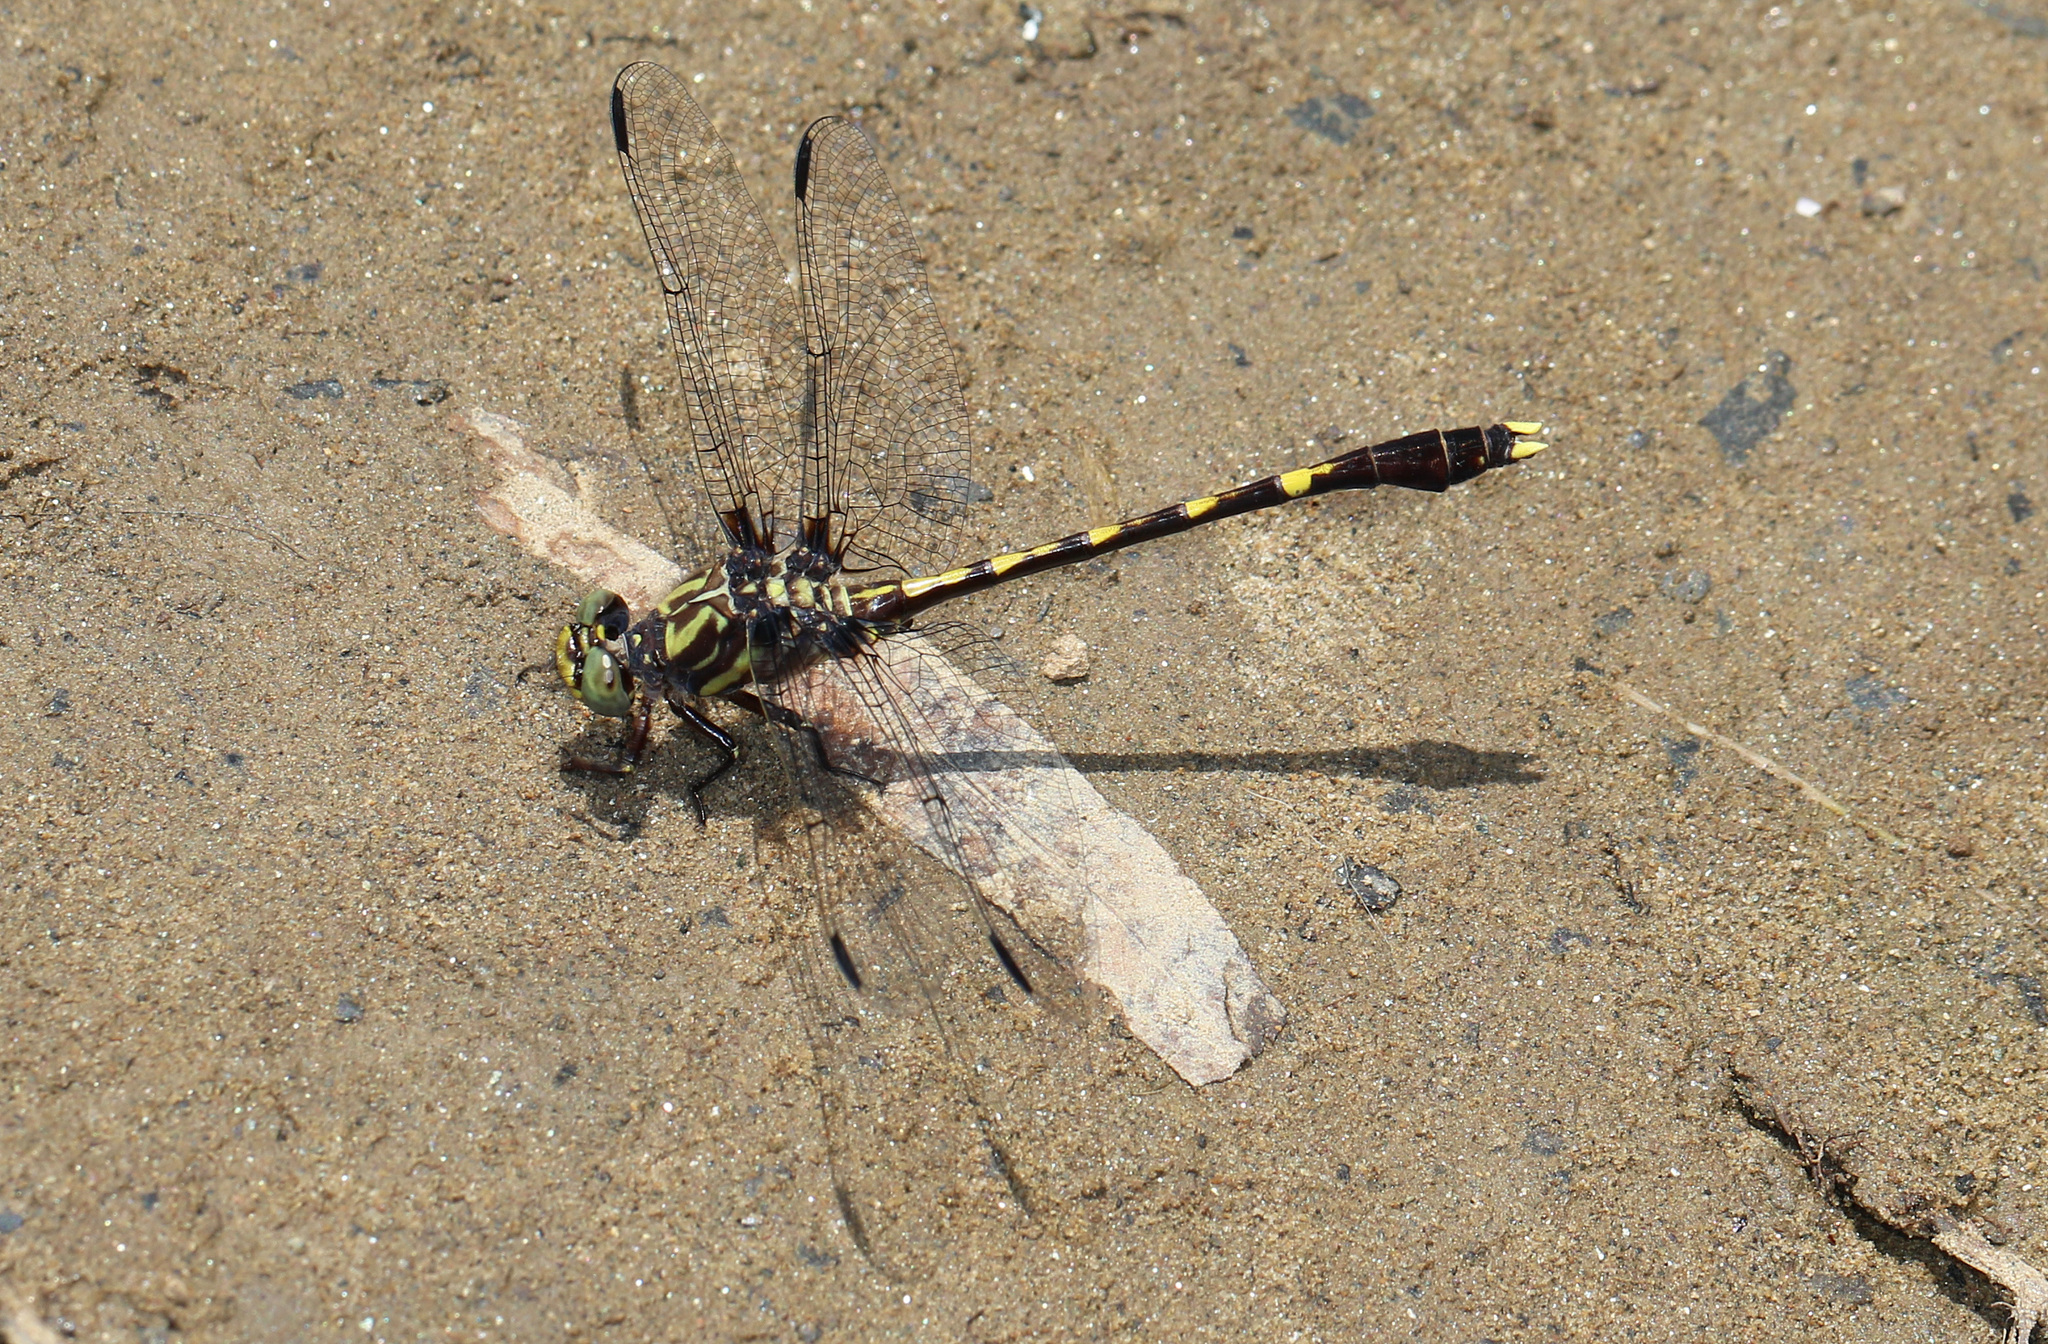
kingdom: Animalia
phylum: Arthropoda
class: Insecta
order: Odonata
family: Gomphidae
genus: Progomphus
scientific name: Progomphus obscurus
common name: Common sanddragon
